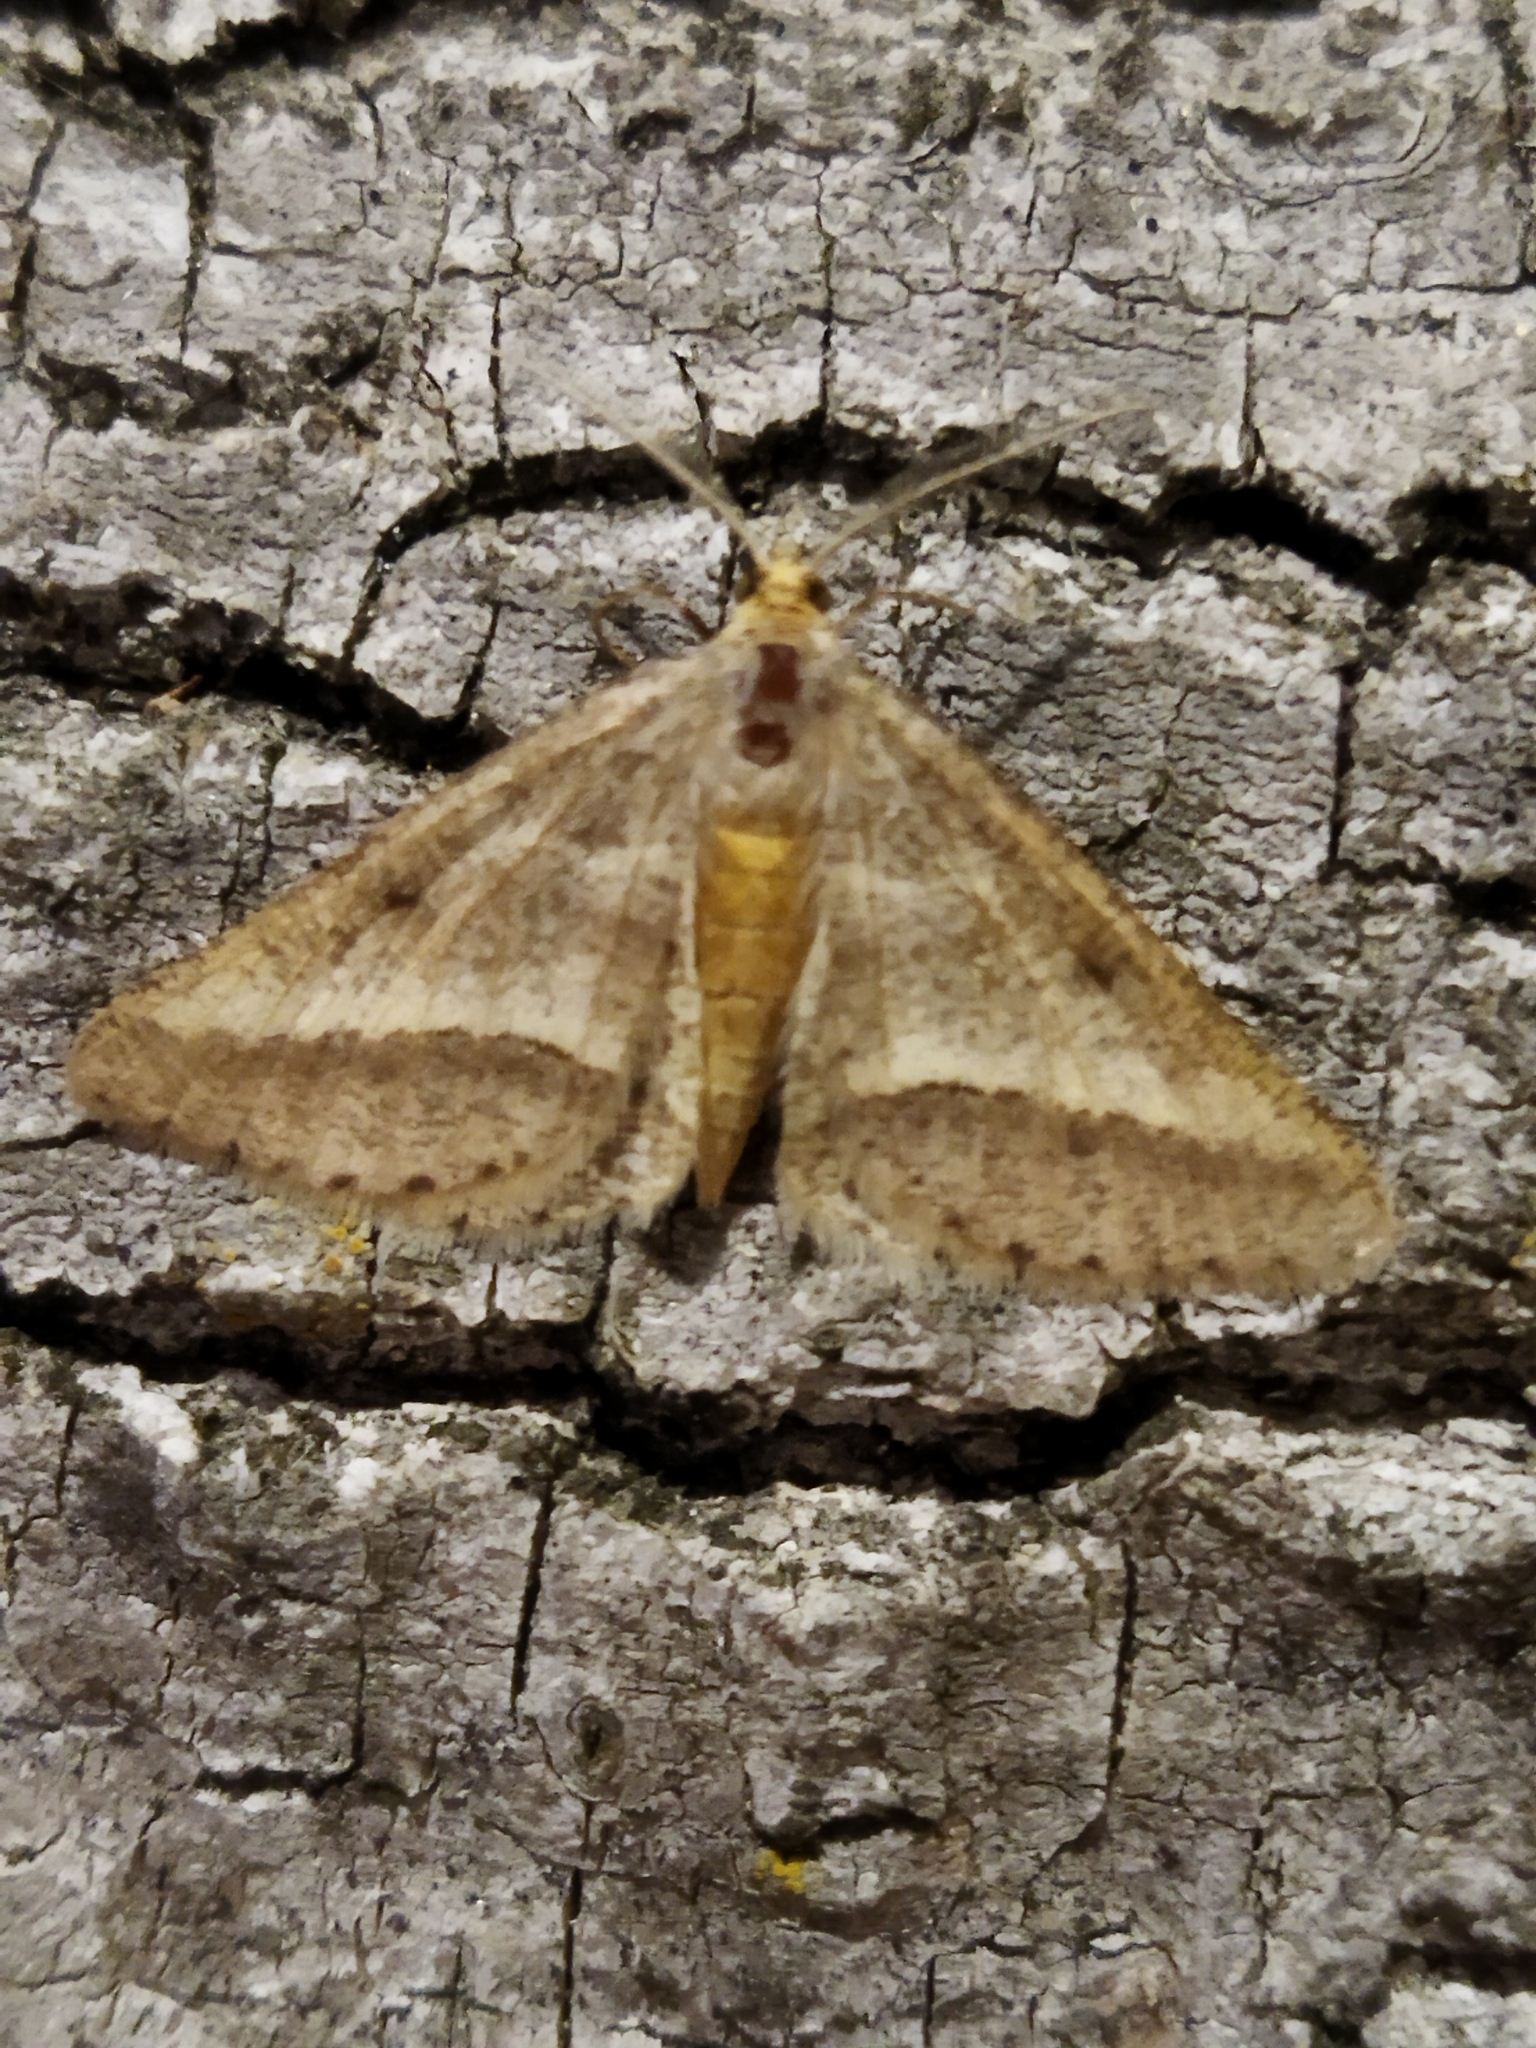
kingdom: Animalia
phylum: Arthropoda
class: Insecta
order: Lepidoptera
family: Geometridae
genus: Tephrina
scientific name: Tephrina arenacearia
